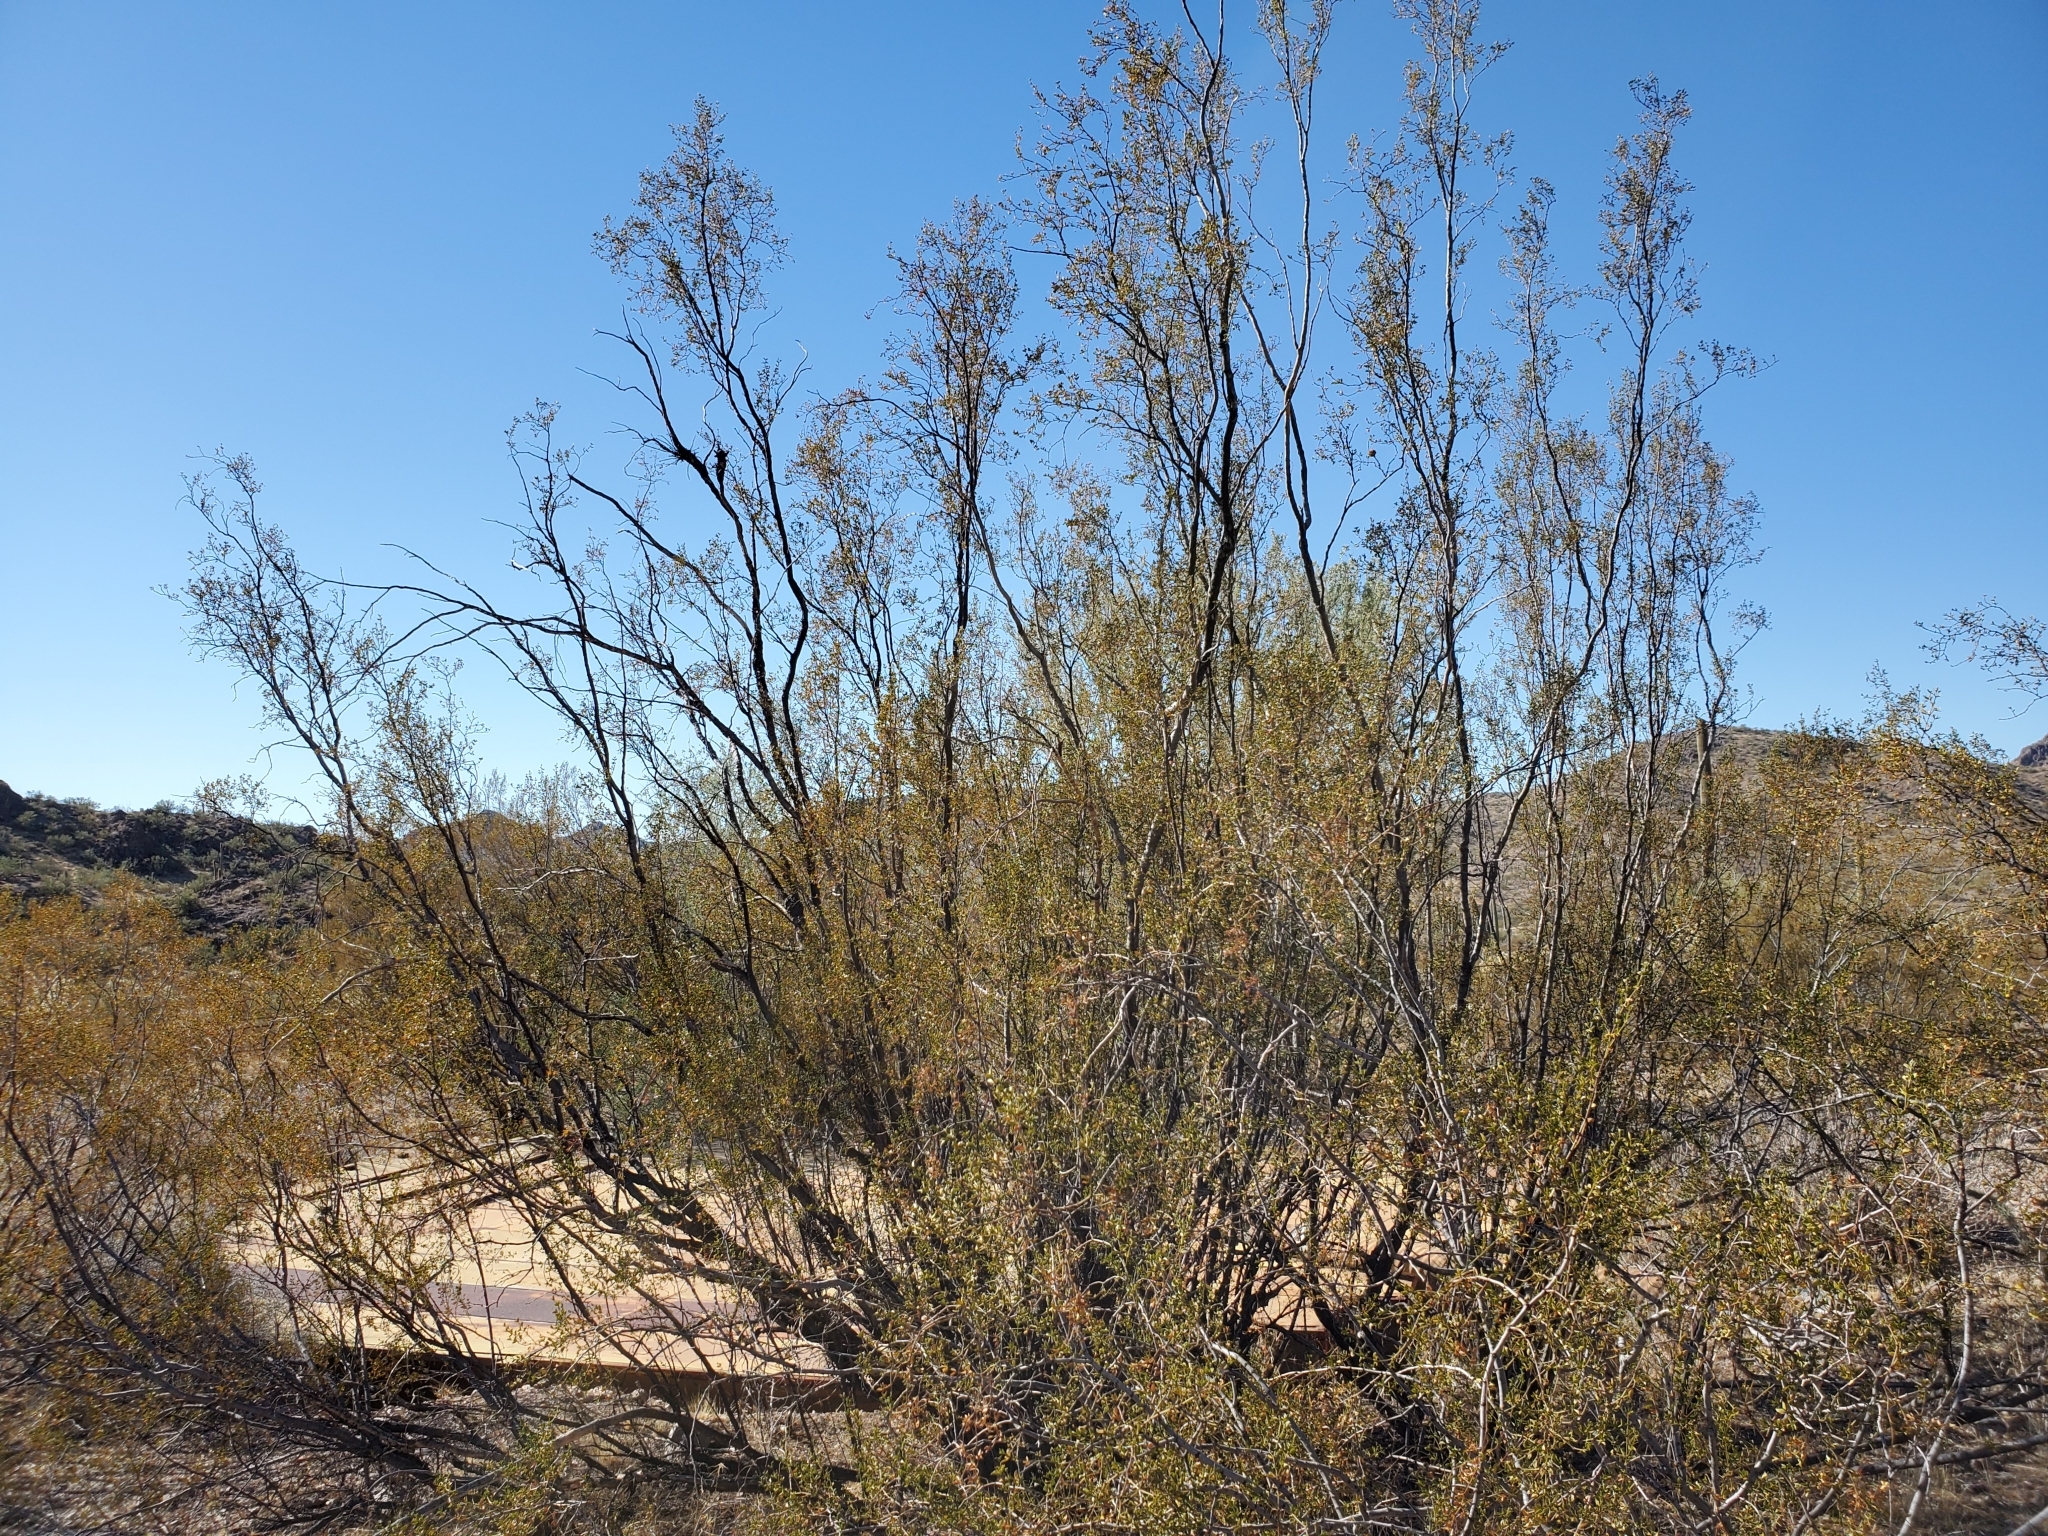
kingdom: Plantae
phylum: Tracheophyta
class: Magnoliopsida
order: Zygophyllales
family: Zygophyllaceae
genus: Larrea
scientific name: Larrea tridentata
